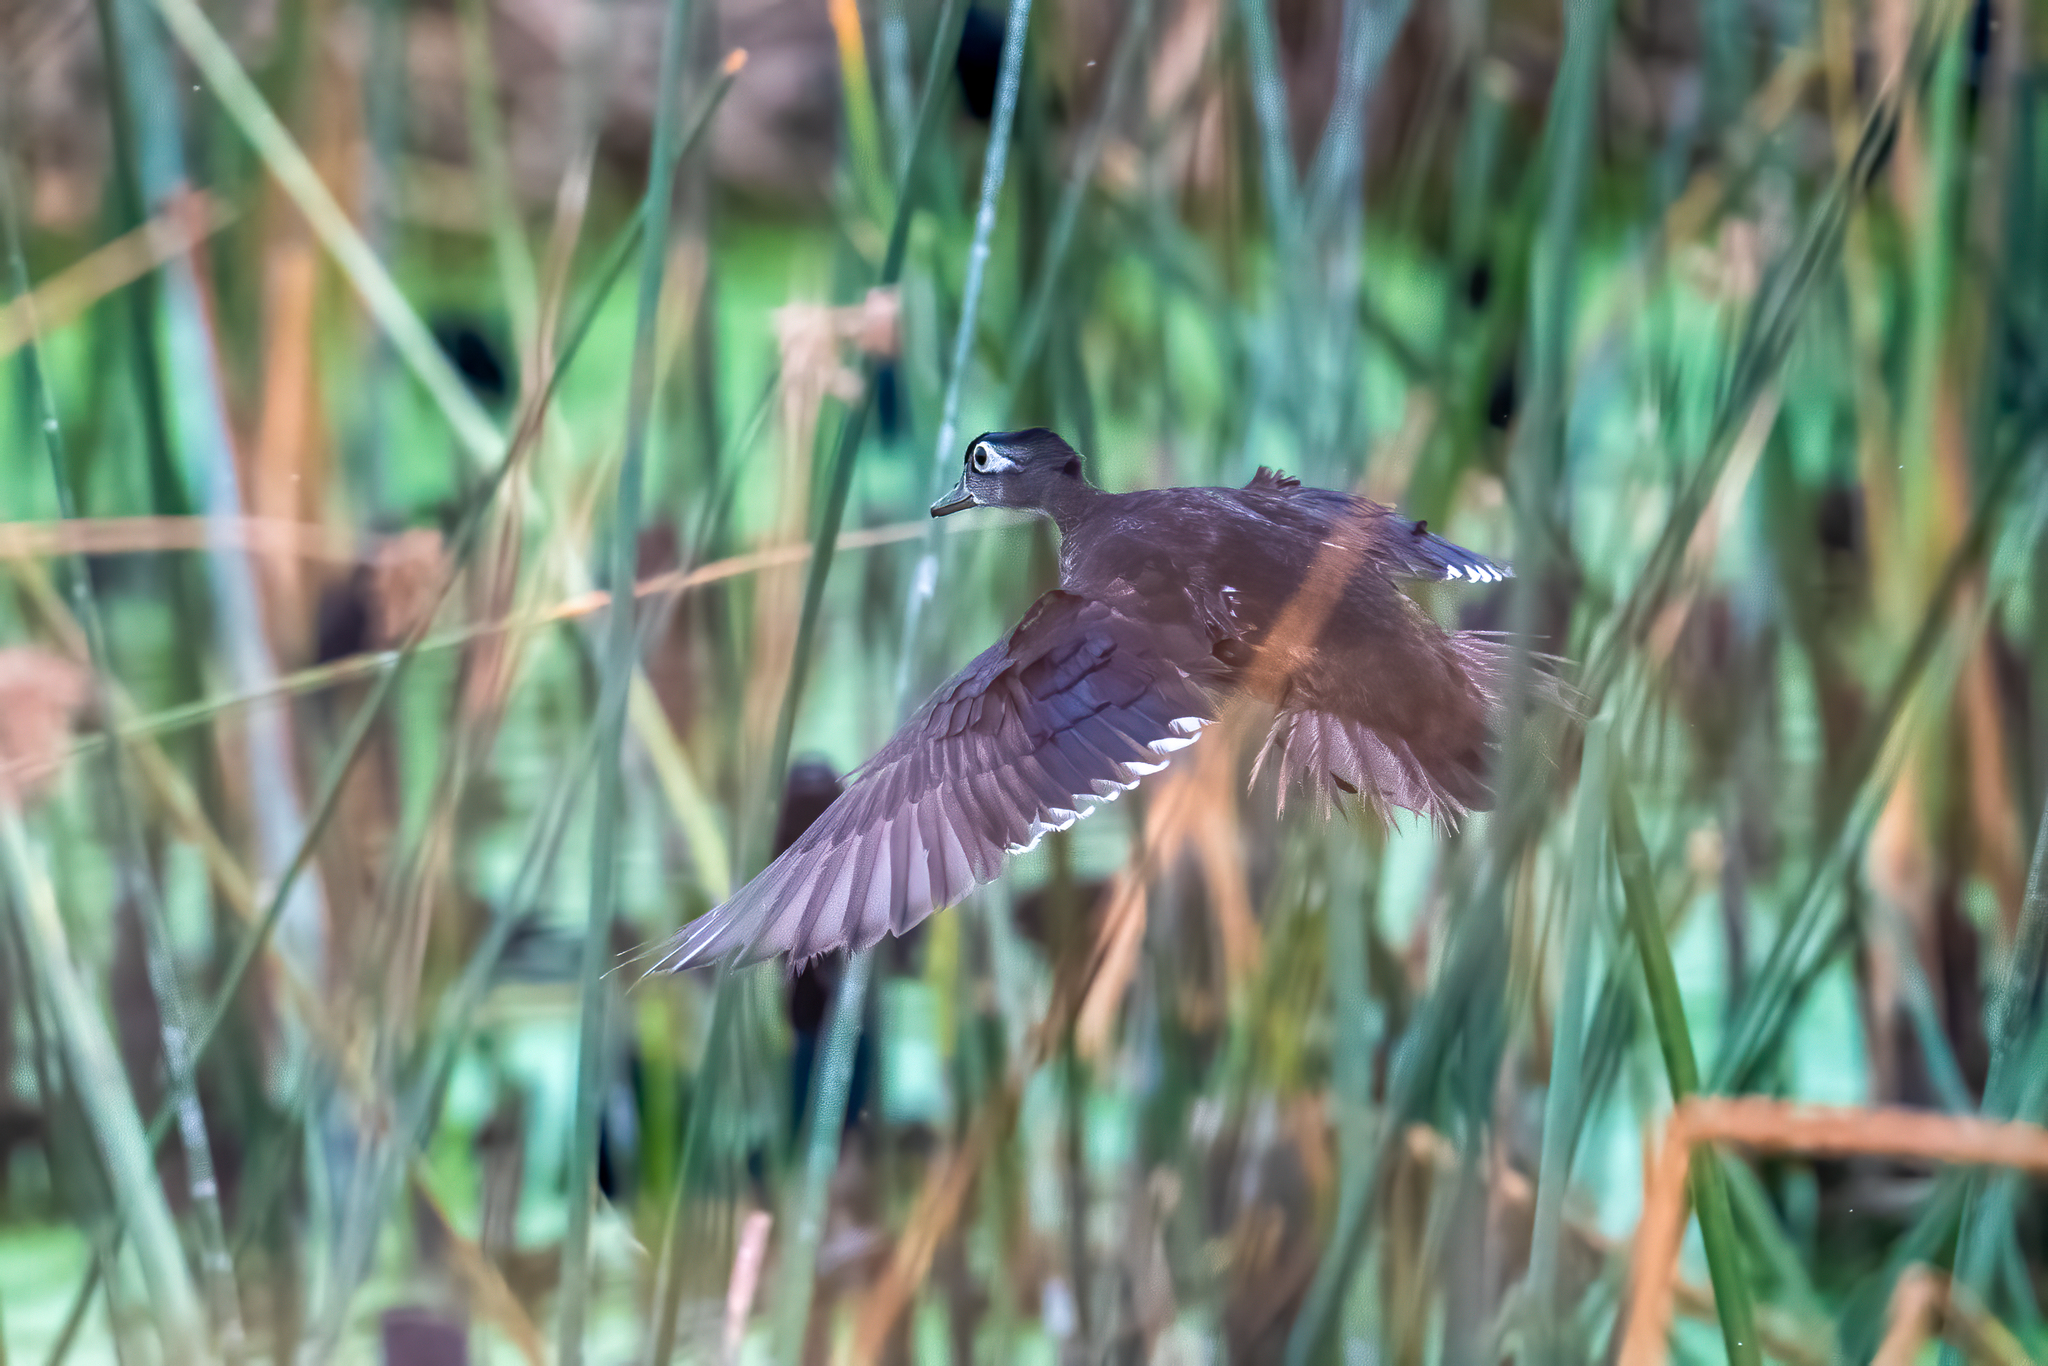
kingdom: Animalia
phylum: Chordata
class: Aves
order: Anseriformes
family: Anatidae
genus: Aix
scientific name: Aix sponsa
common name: Wood duck
